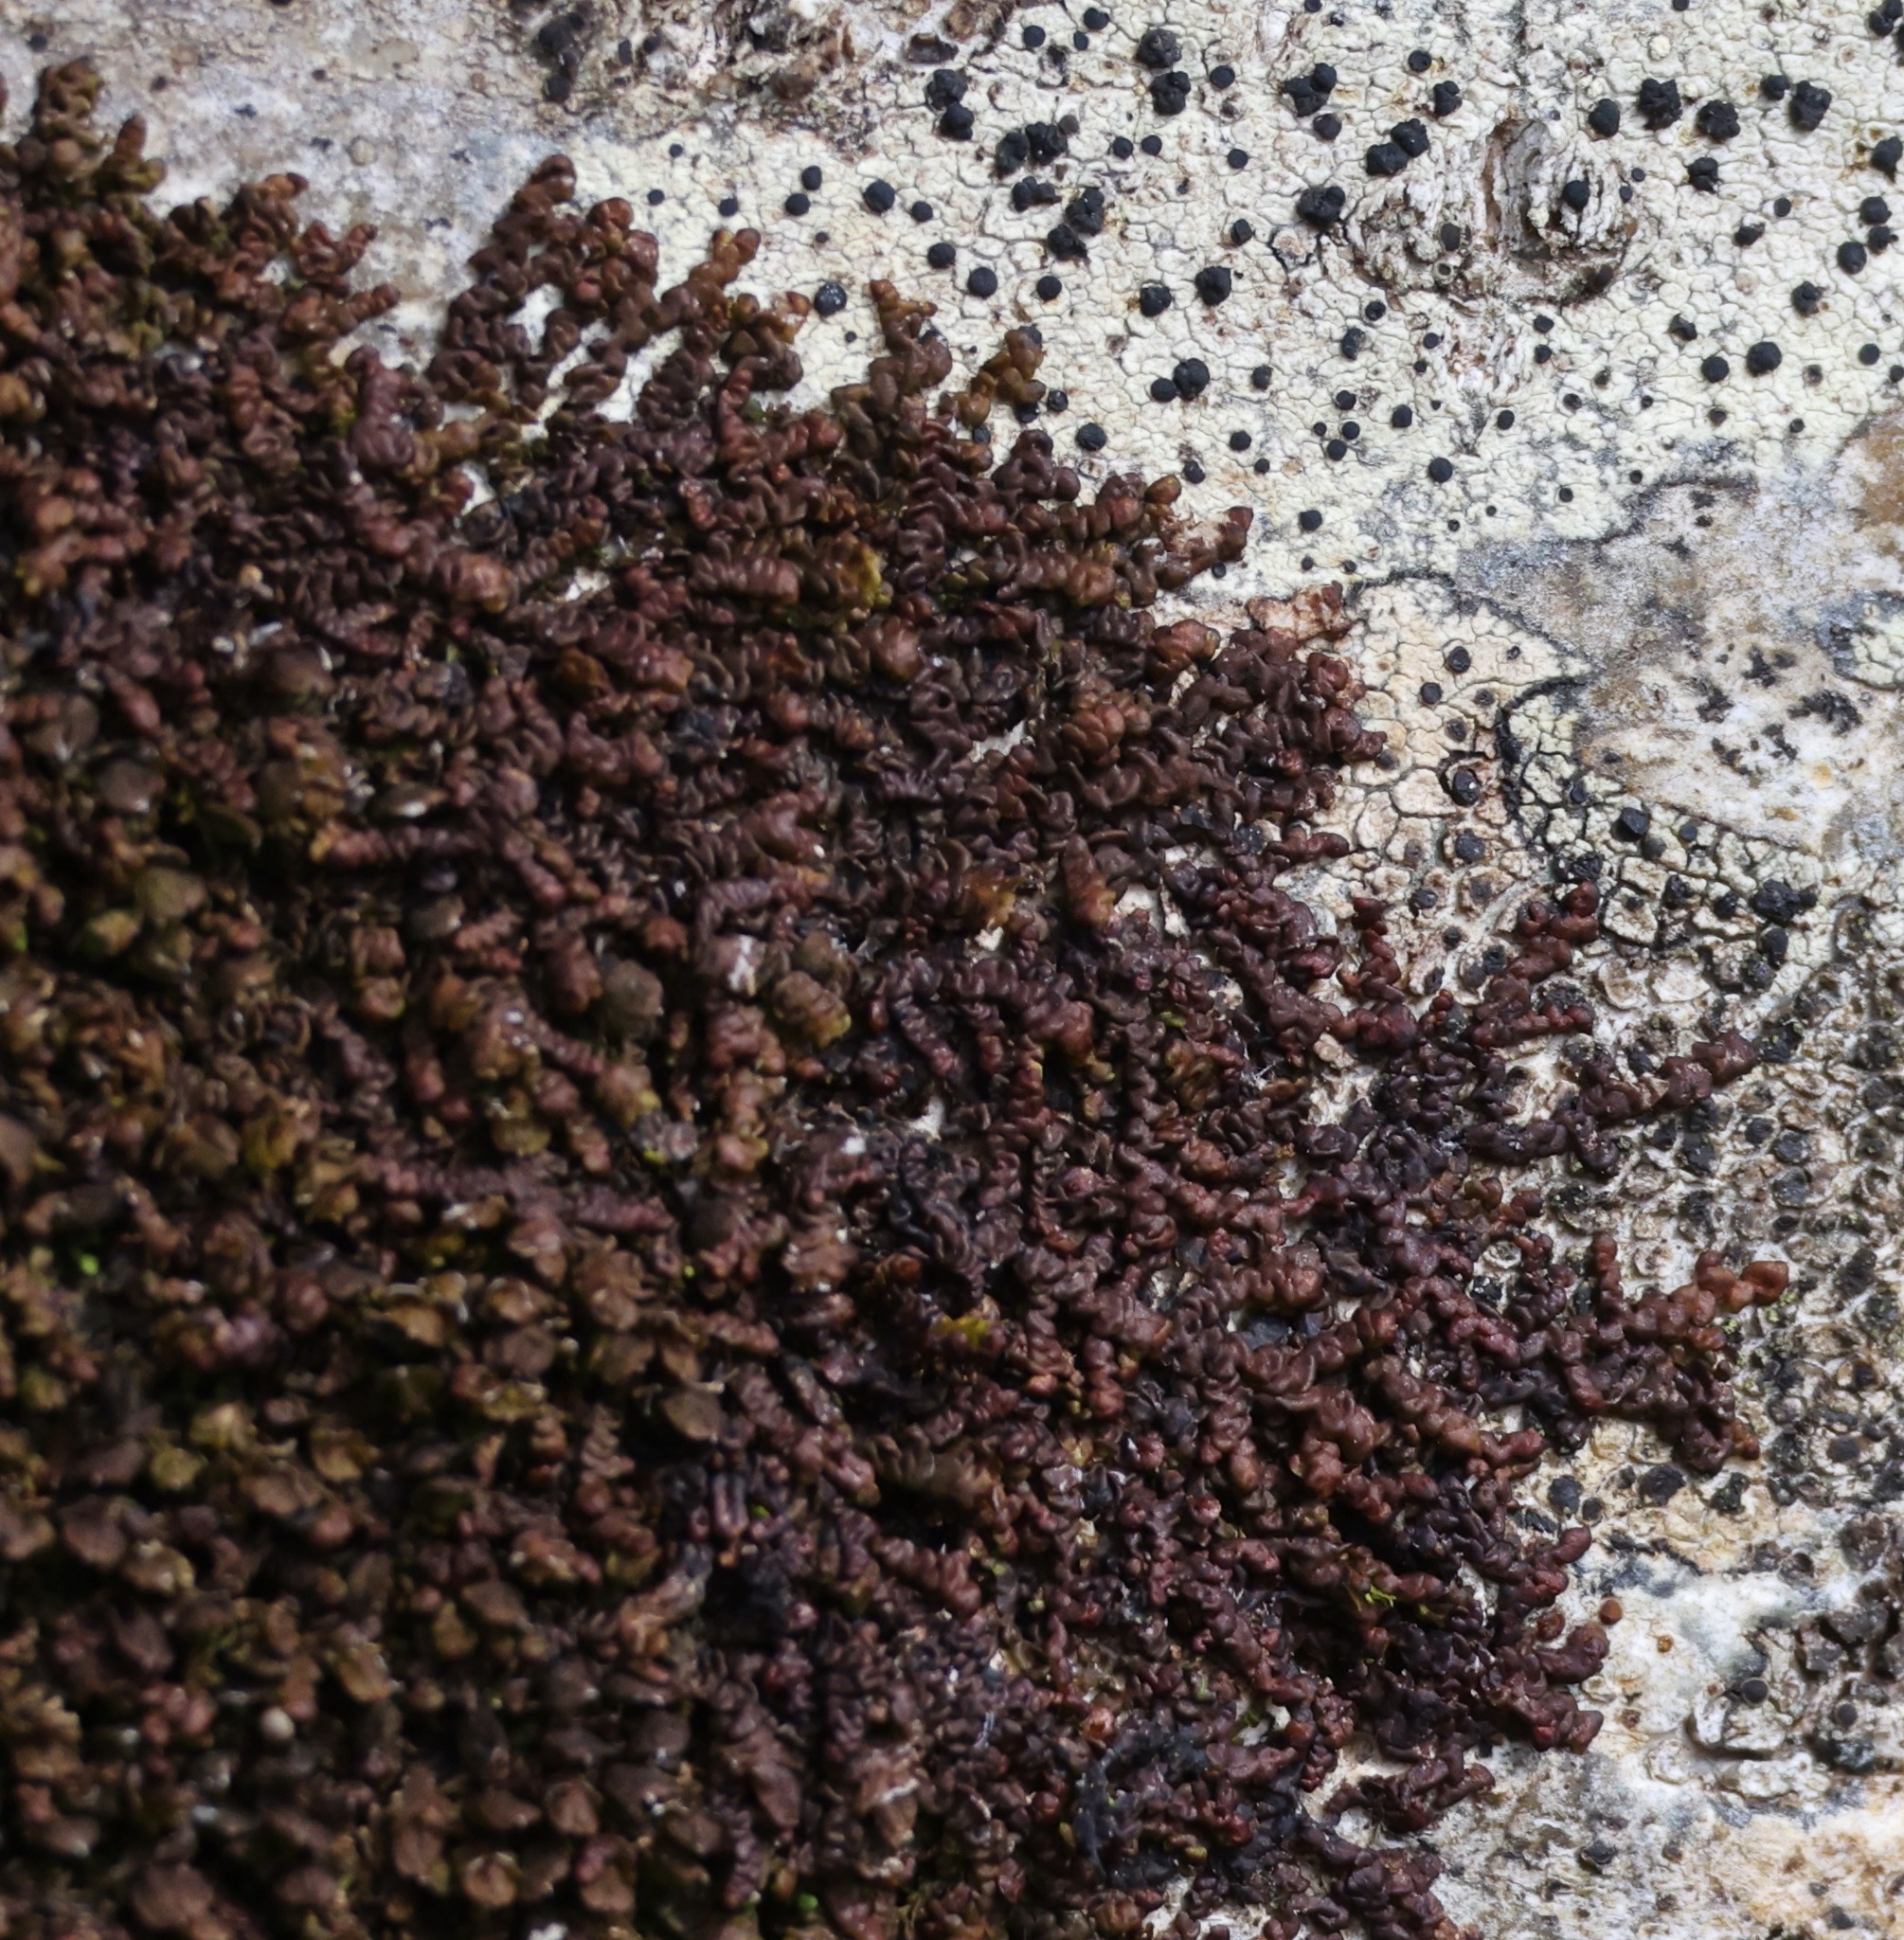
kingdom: Plantae
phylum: Marchantiophyta
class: Jungermanniopsida
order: Porellales
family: Frullaniaceae
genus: Frullania
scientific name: Frullania dilatata
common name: Dilated scalewort
